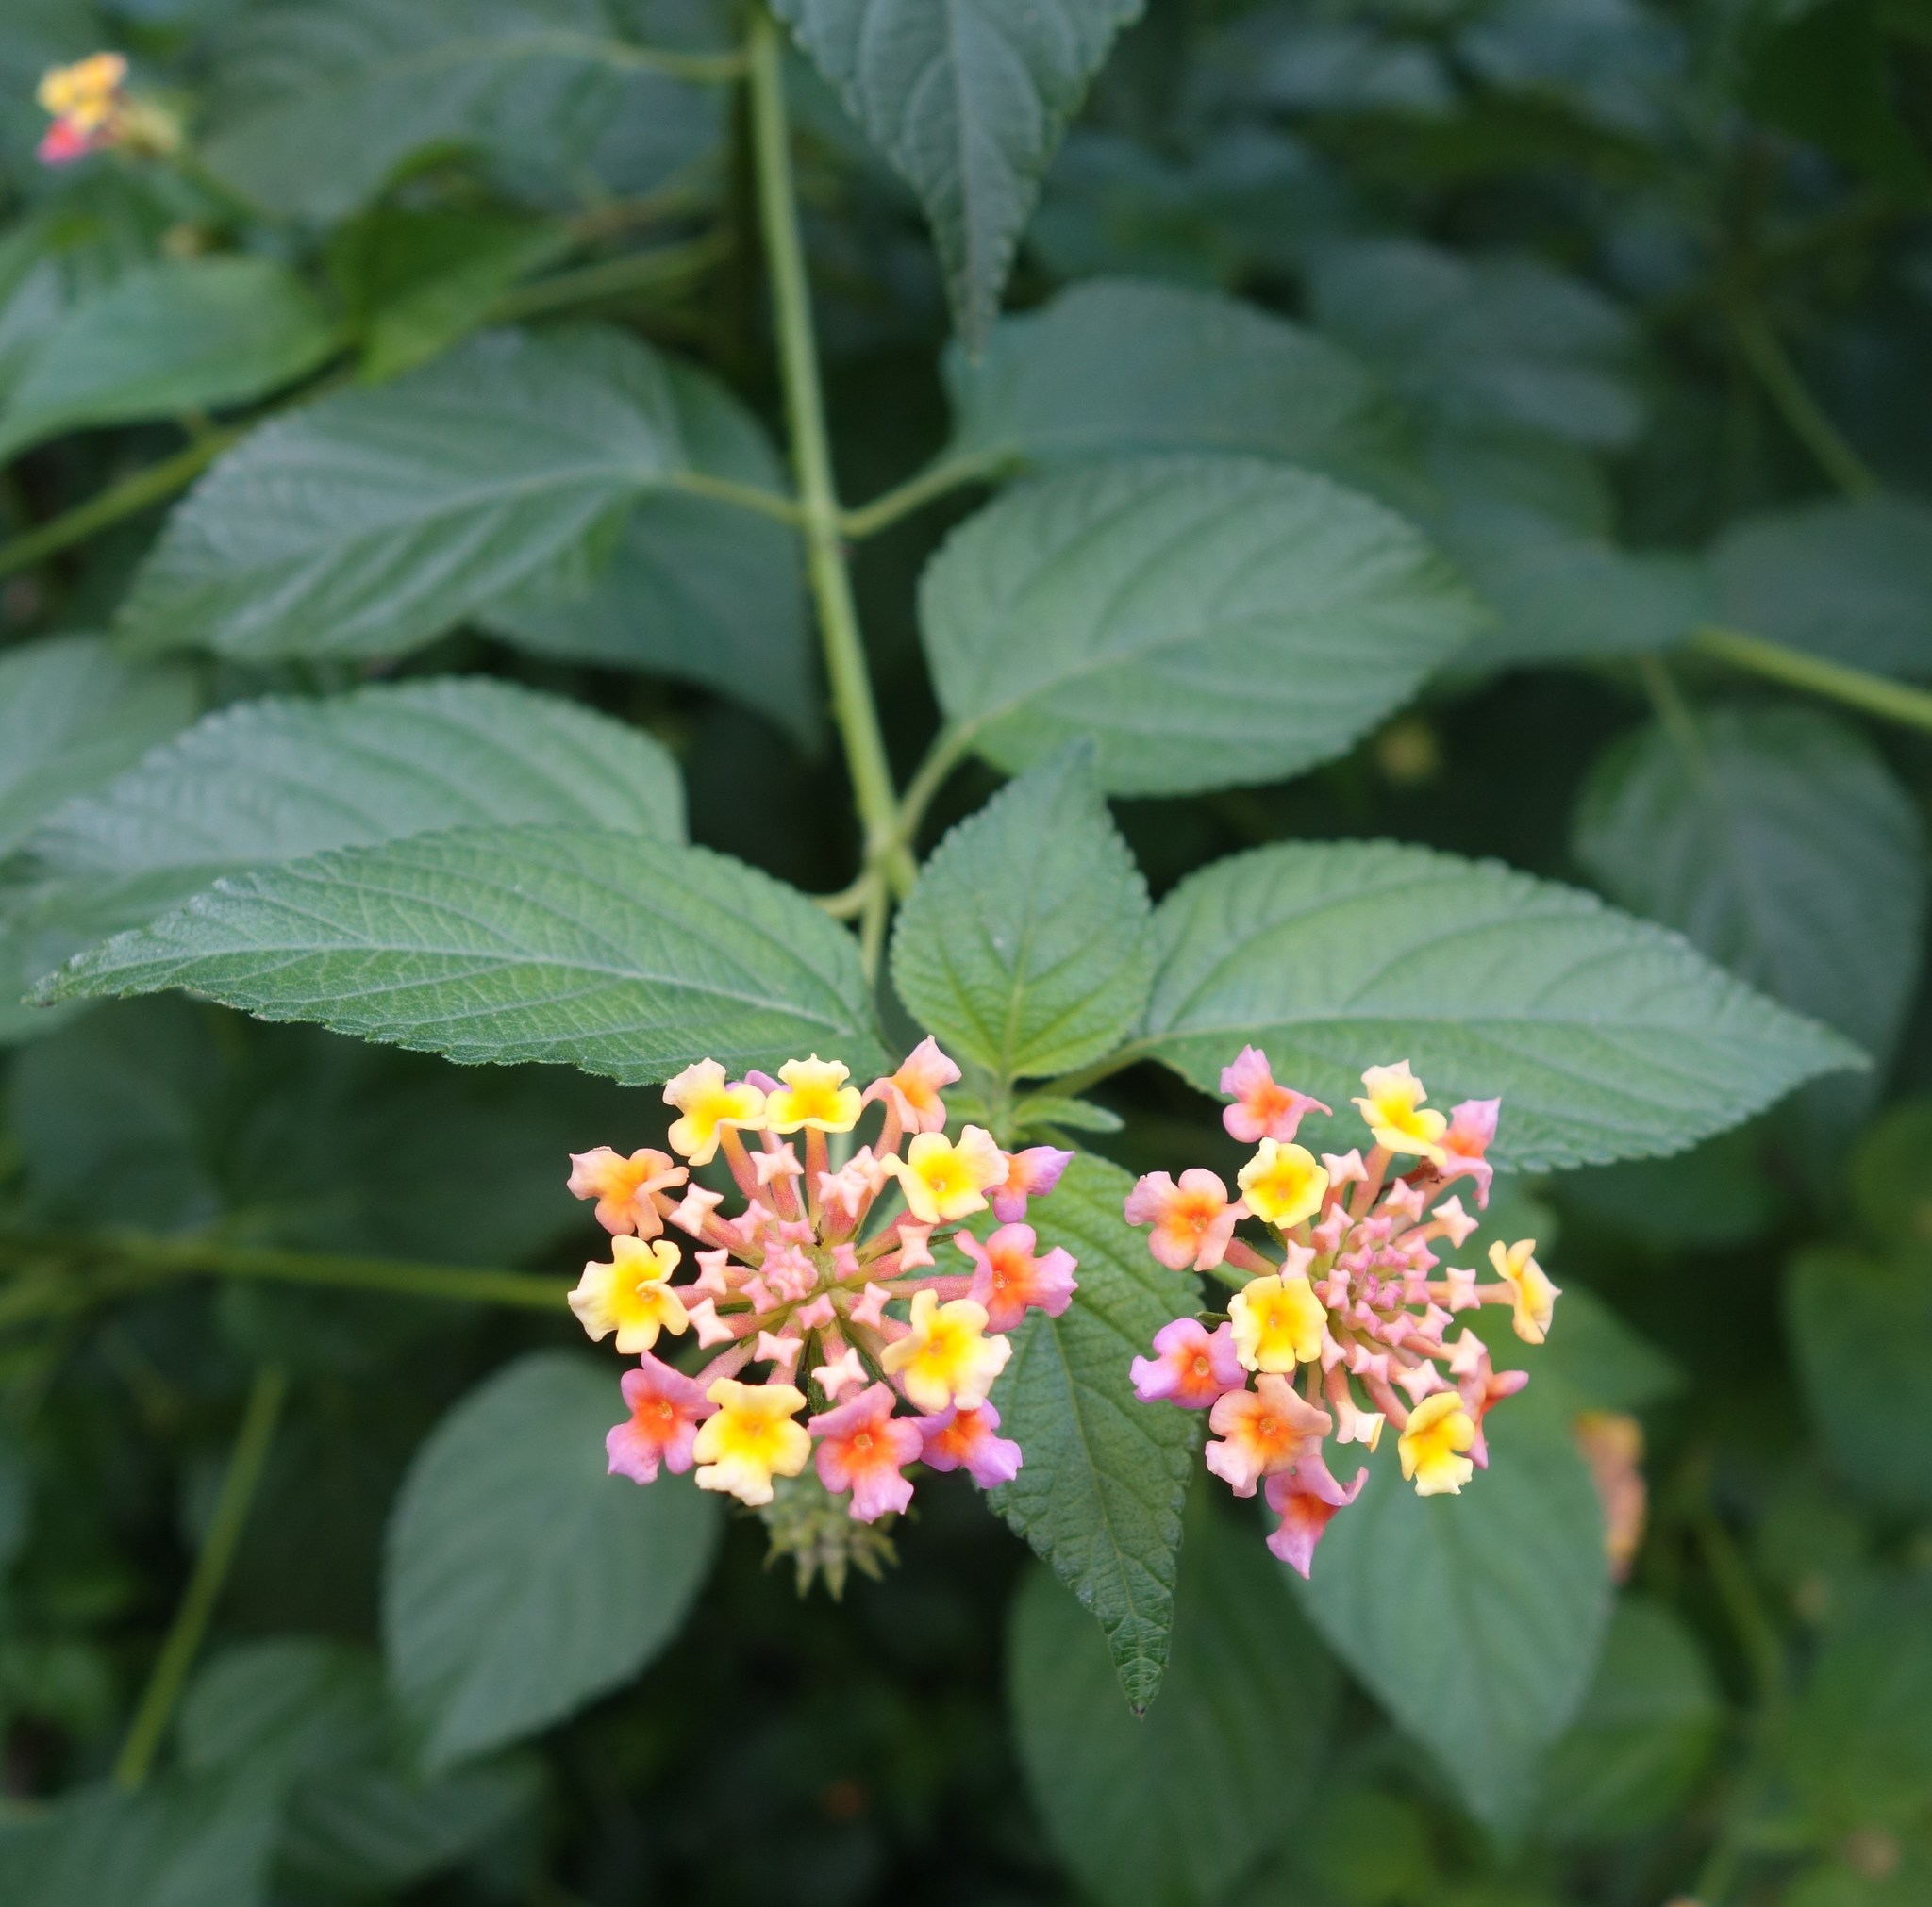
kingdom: Plantae
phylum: Tracheophyta
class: Magnoliopsida
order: Lamiales
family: Verbenaceae
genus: Lantana
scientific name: Lantana camara
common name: Lantana
